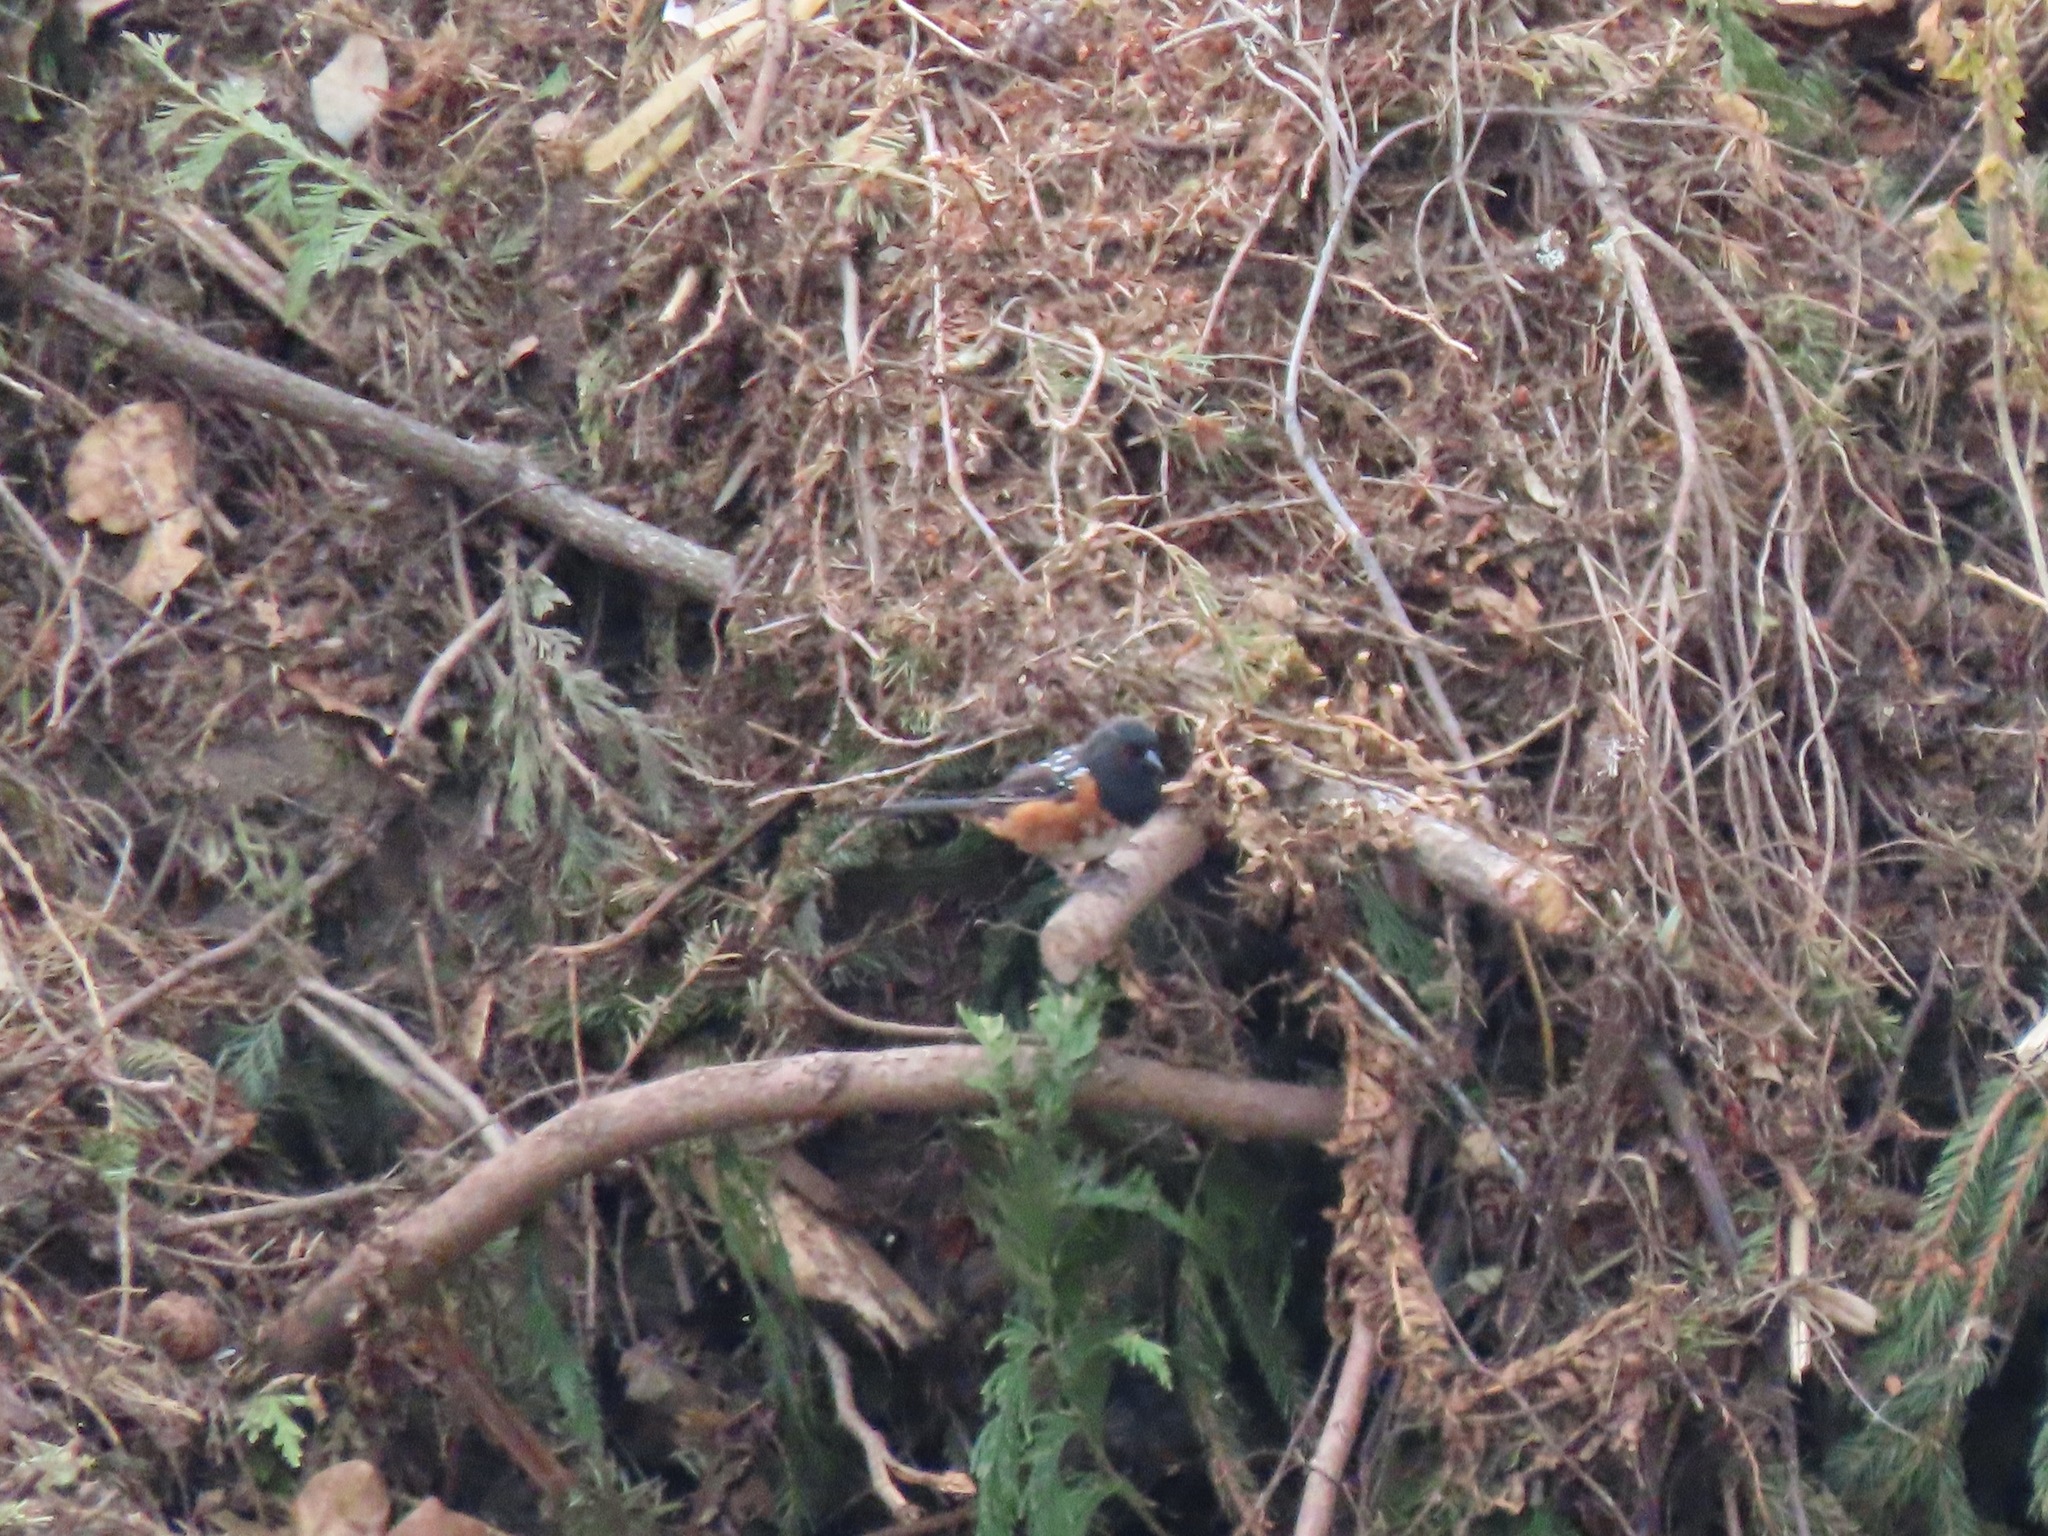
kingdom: Animalia
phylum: Chordata
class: Aves
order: Passeriformes
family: Passerellidae
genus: Pipilo
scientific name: Pipilo maculatus
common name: Spotted towhee
